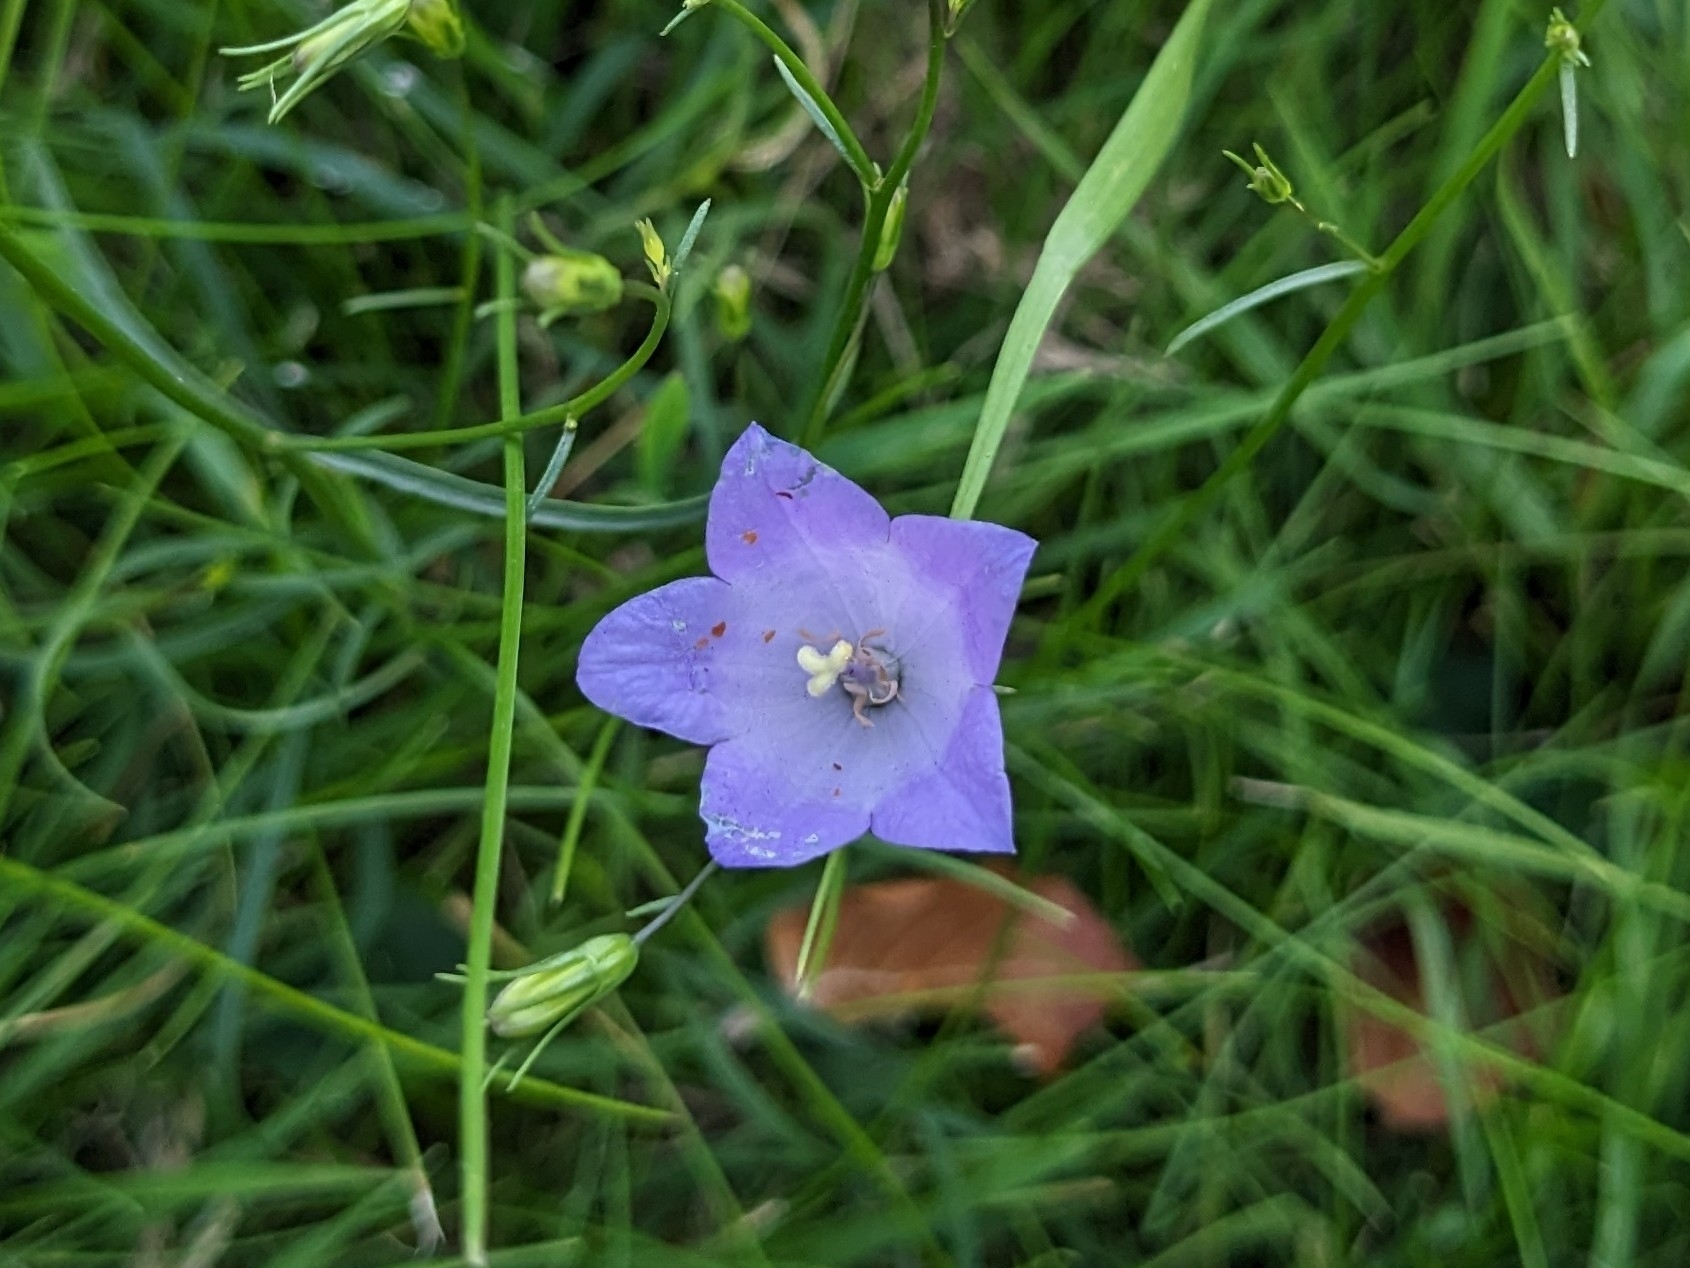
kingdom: Plantae
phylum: Tracheophyta
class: Magnoliopsida
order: Asterales
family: Campanulaceae
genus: Campanula
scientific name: Campanula rotundifolia
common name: Harebell
